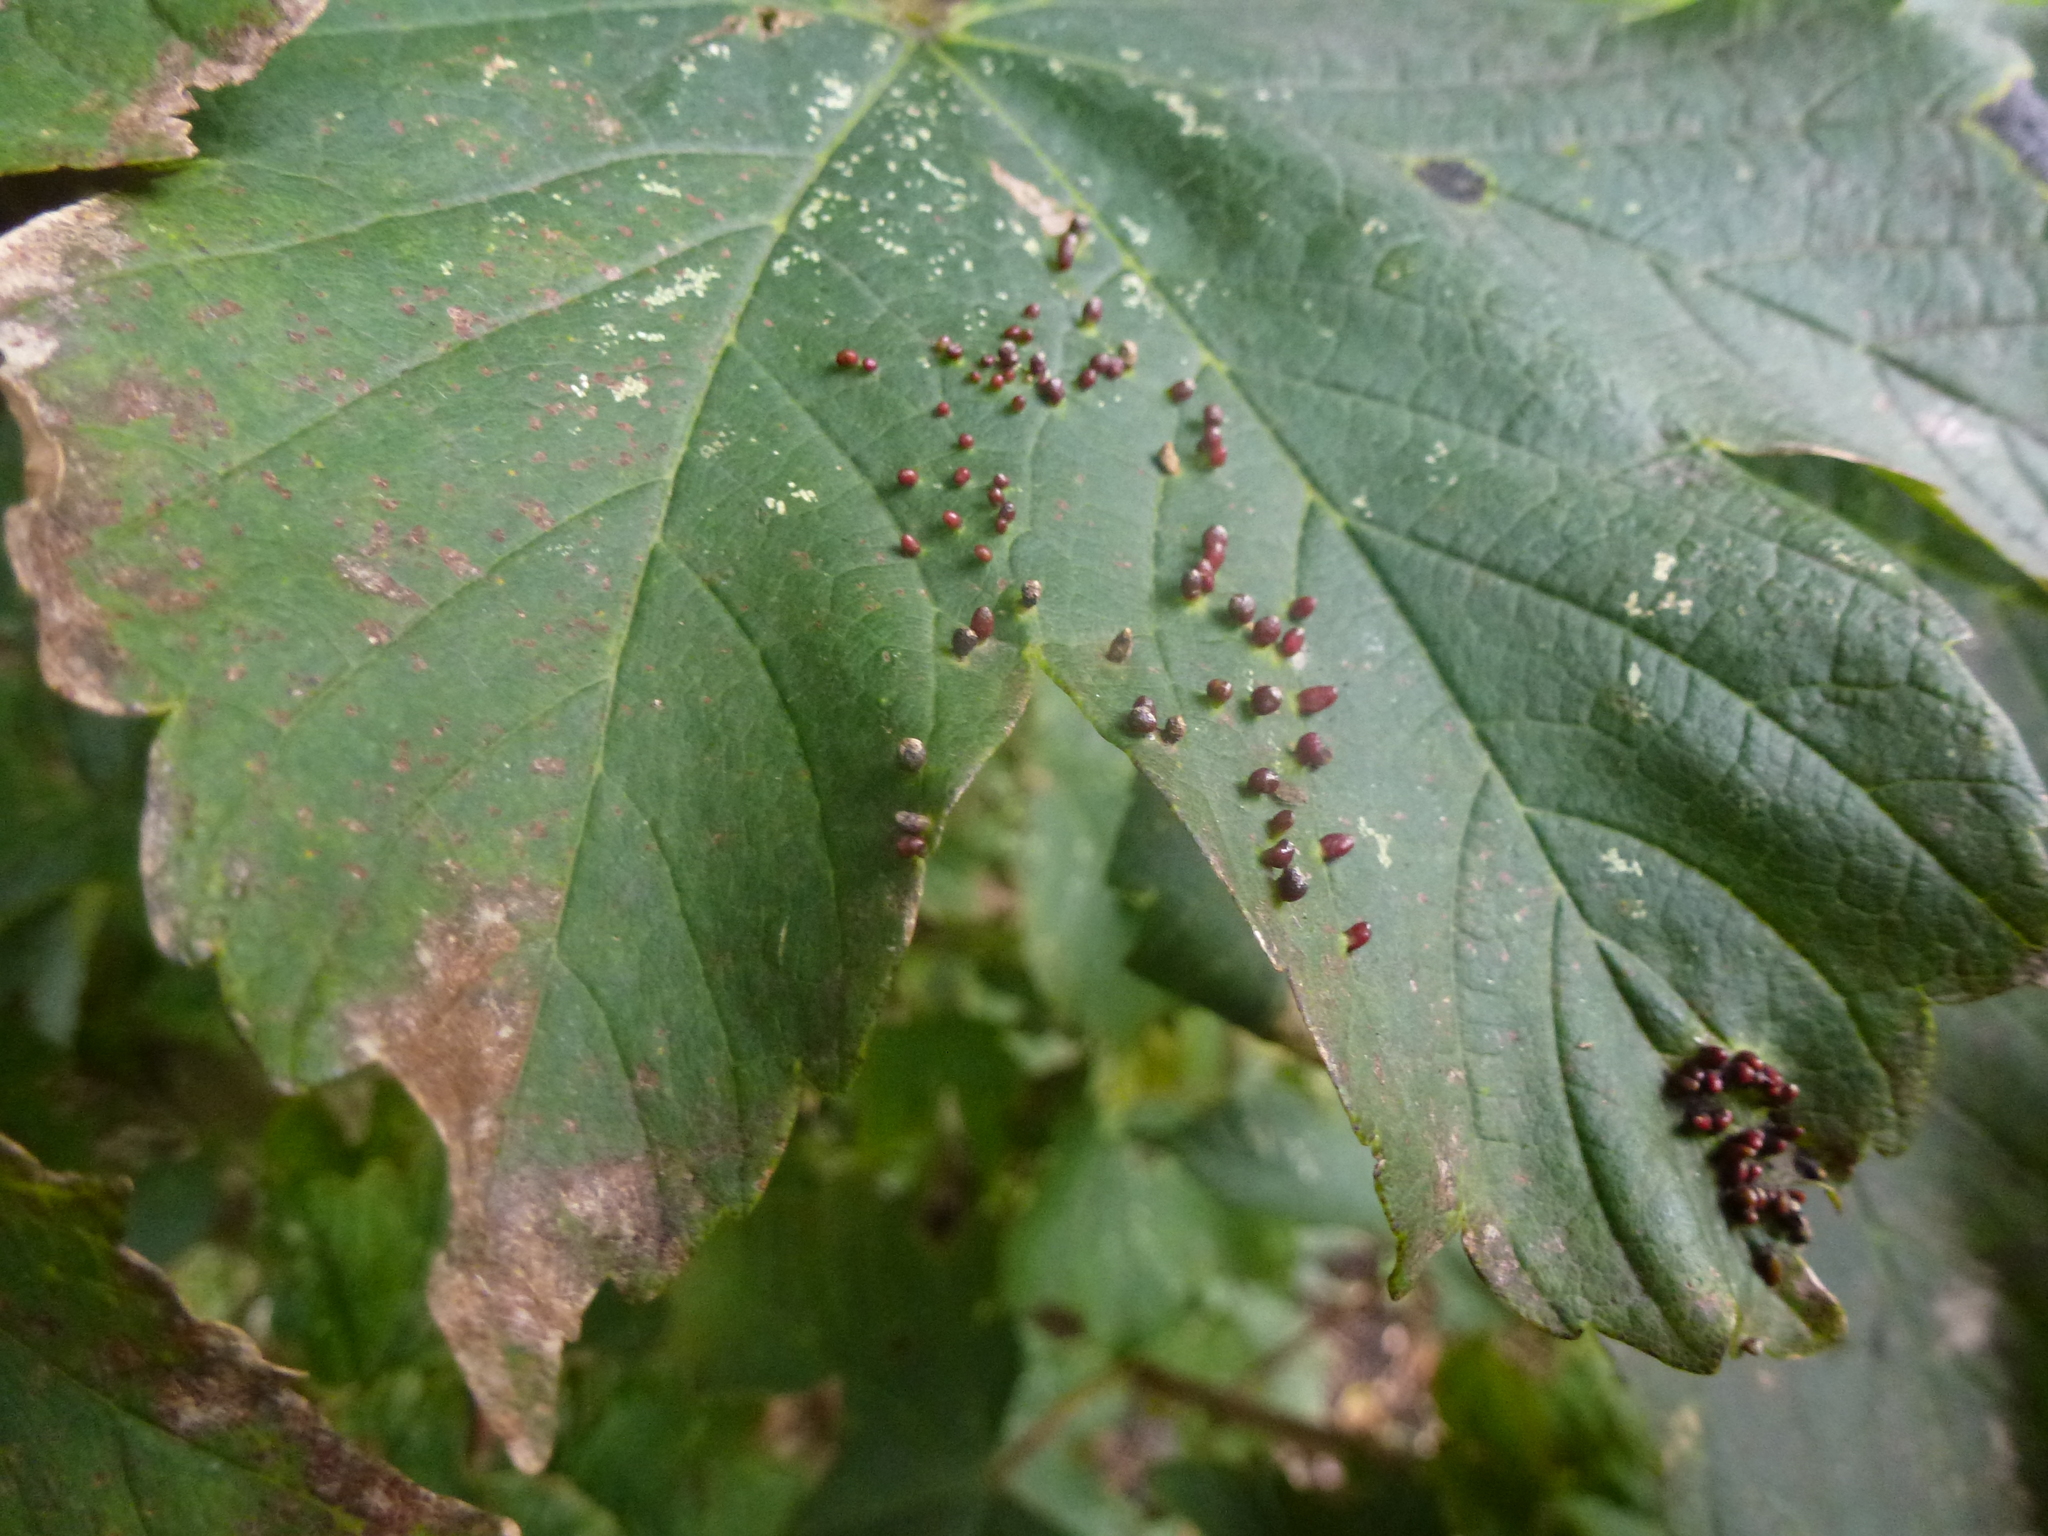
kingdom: Animalia
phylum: Arthropoda
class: Arachnida
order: Trombidiformes
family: Eriophyidae
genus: Aceria
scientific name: Aceria cephaloneus
